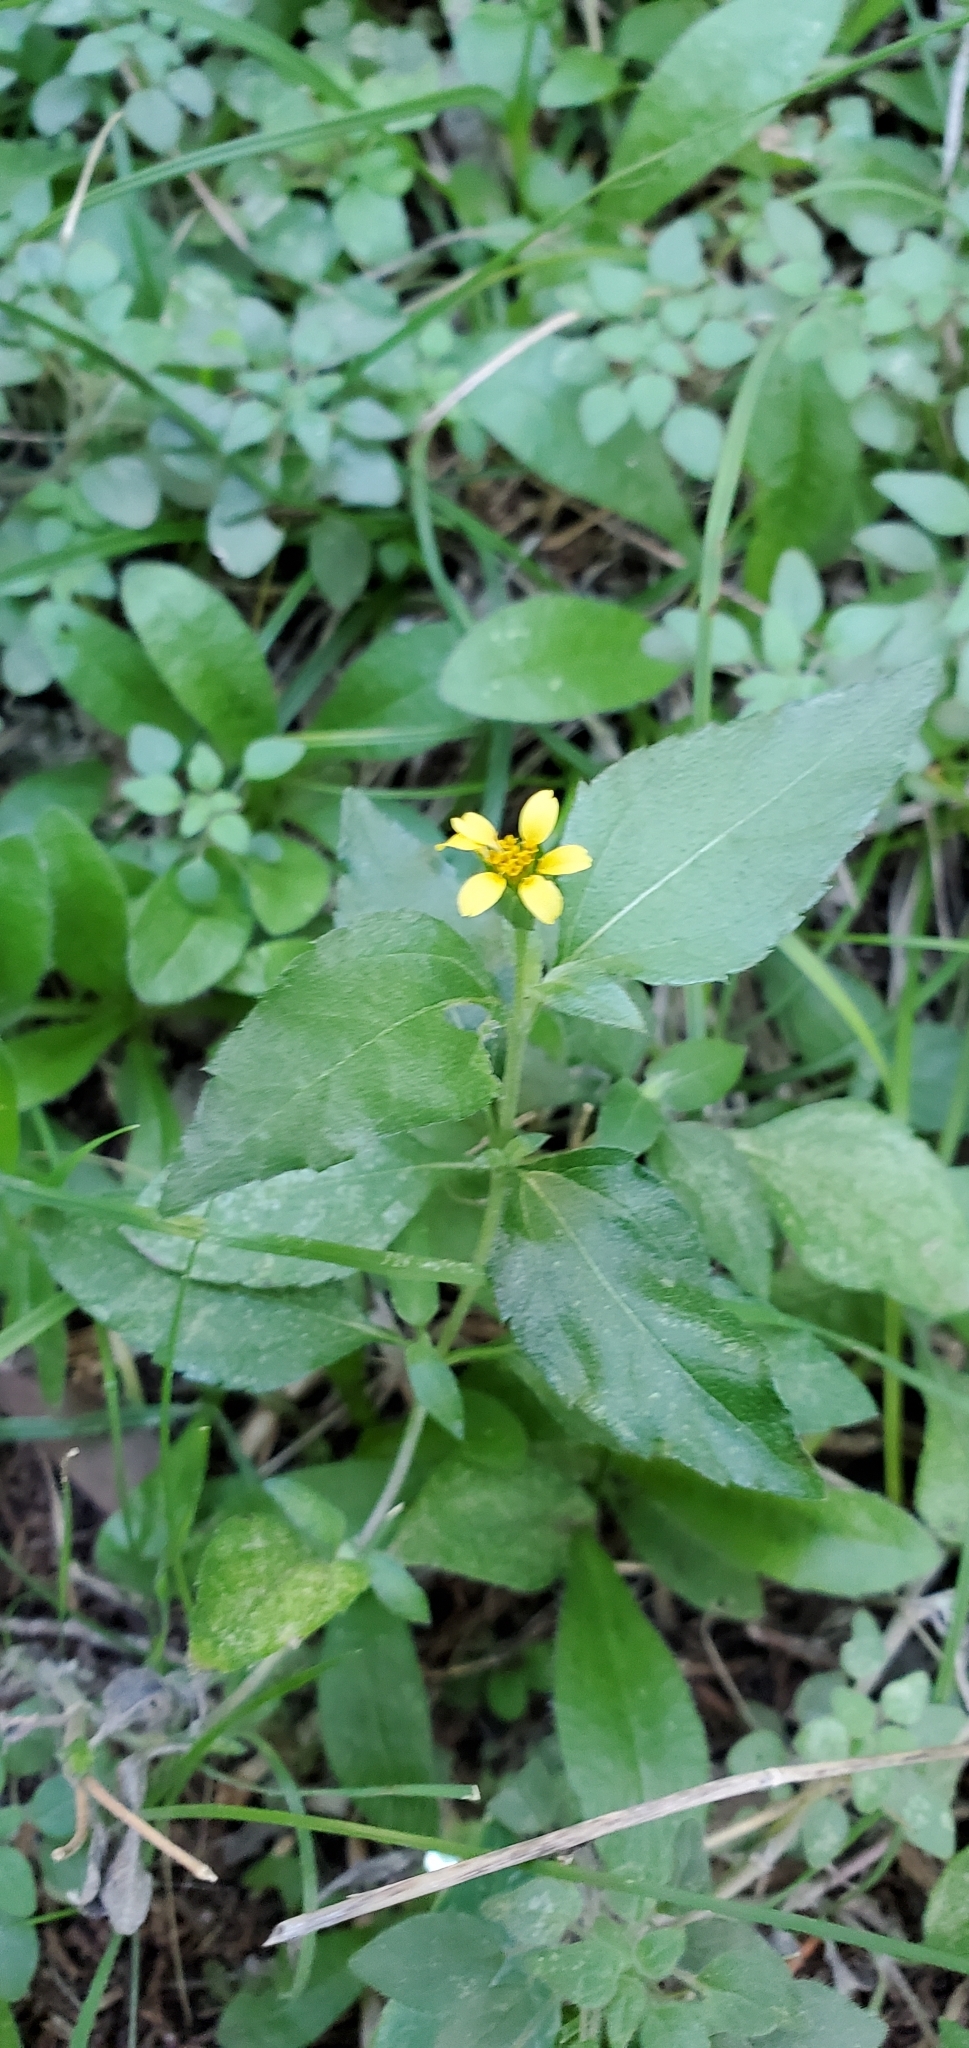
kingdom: Plantae
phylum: Tracheophyta
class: Magnoliopsida
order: Asterales
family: Asteraceae
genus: Calyptocarpus
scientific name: Calyptocarpus vialis
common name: Straggler daisy
